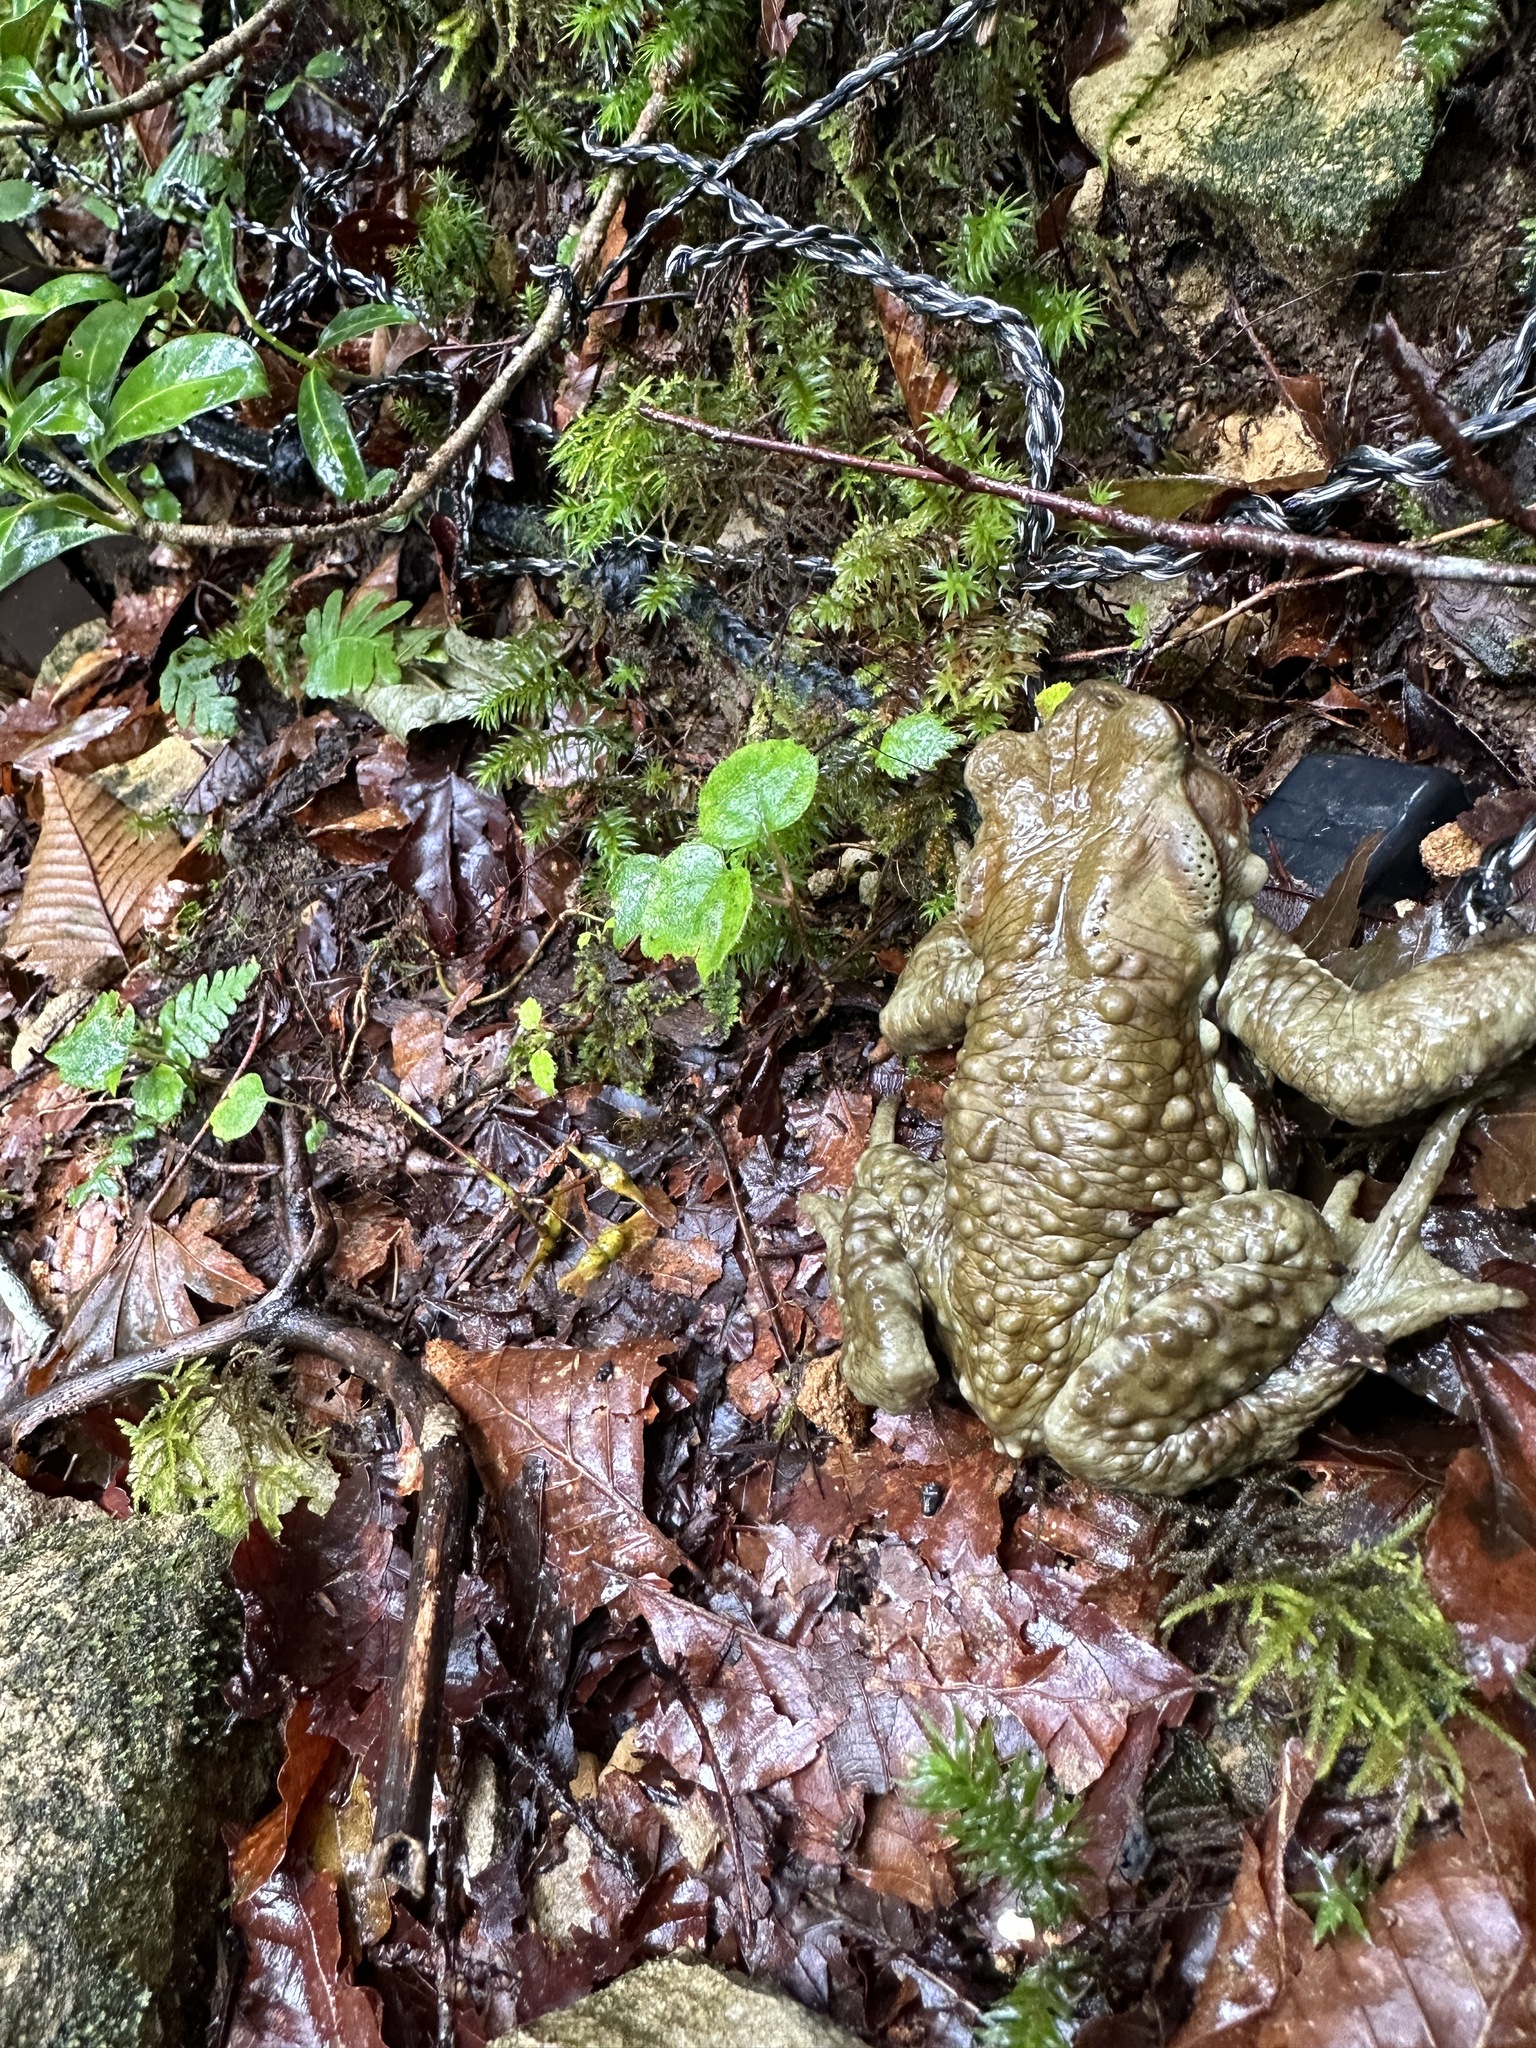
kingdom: Animalia
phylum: Chordata
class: Amphibia
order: Anura
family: Bufonidae
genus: Bufo
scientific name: Bufo
